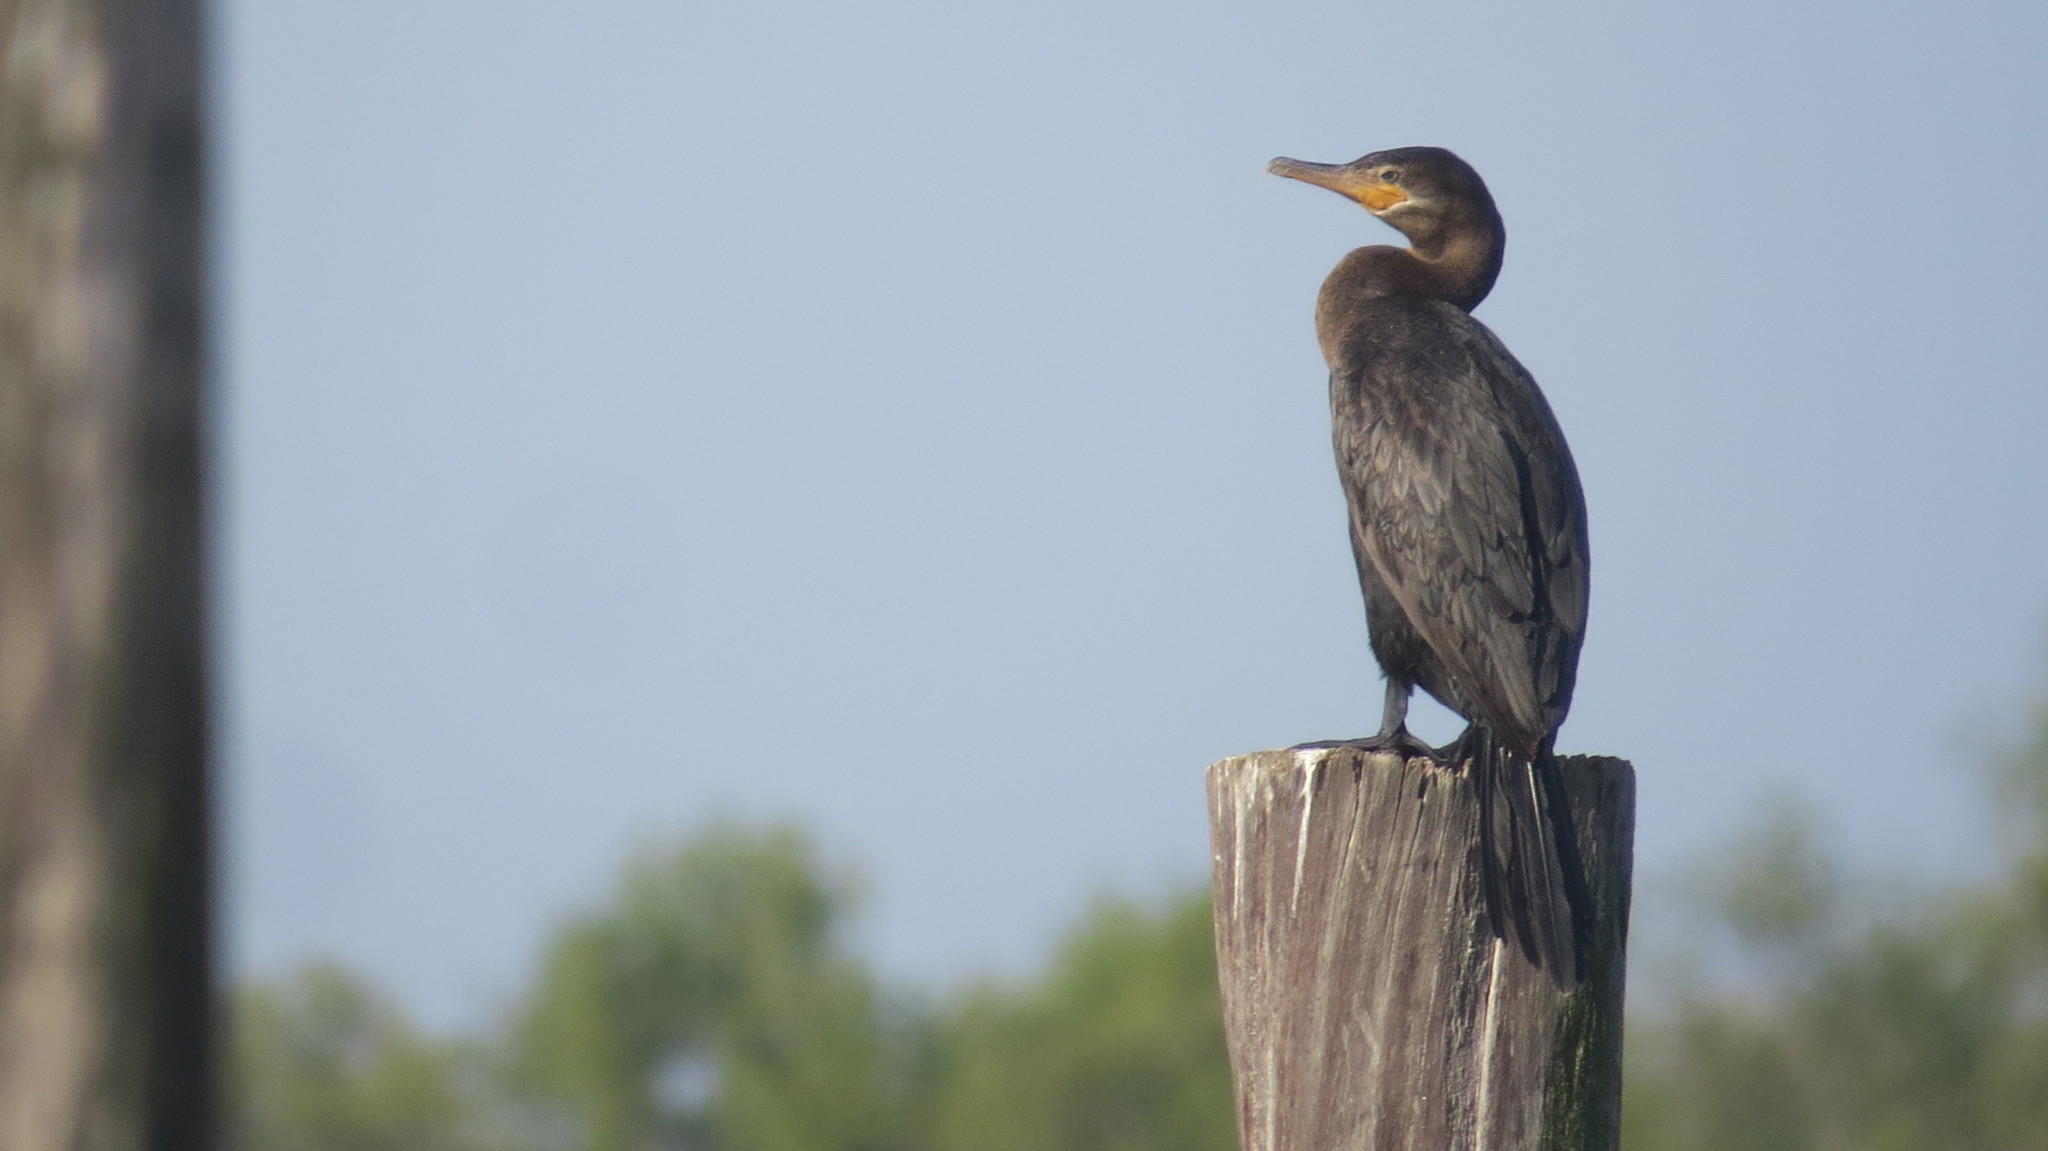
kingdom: Animalia
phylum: Chordata
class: Aves
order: Suliformes
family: Phalacrocoracidae
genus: Phalacrocorax
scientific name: Phalacrocorax brasilianus
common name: Neotropic cormorant
